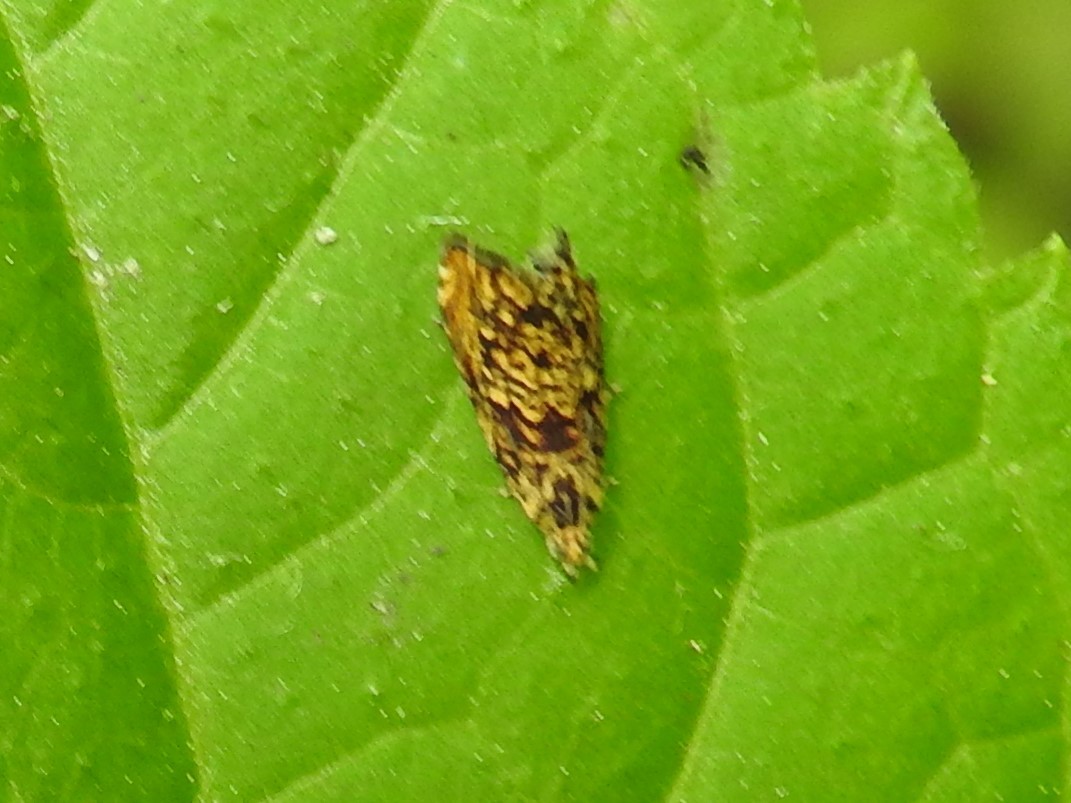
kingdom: Animalia
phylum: Arthropoda
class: Insecta
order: Lepidoptera
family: Tortricidae
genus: Dichrorampha
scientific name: Dichrorampha leopardana
